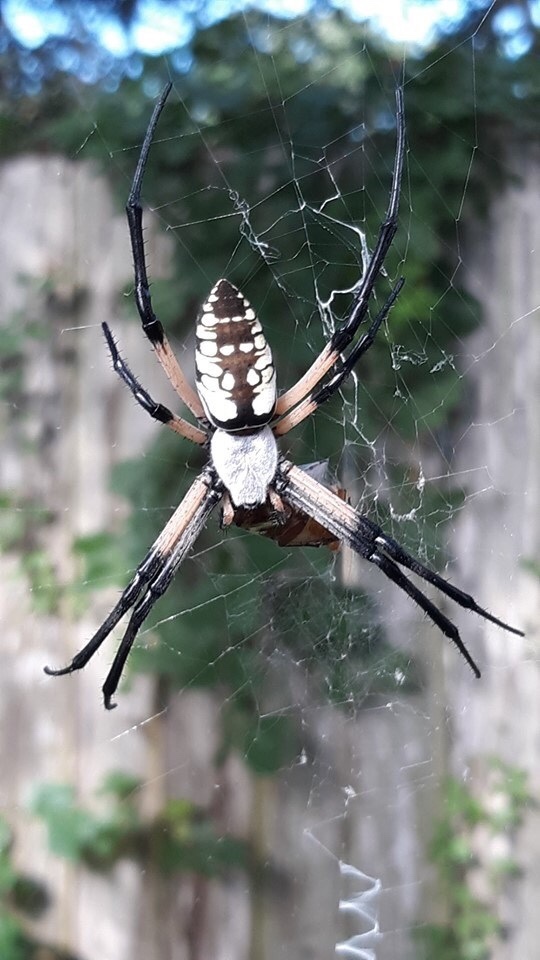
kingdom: Animalia
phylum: Arthropoda
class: Arachnida
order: Araneae
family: Araneidae
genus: Argiope
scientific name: Argiope aurantia
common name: Orb weavers
